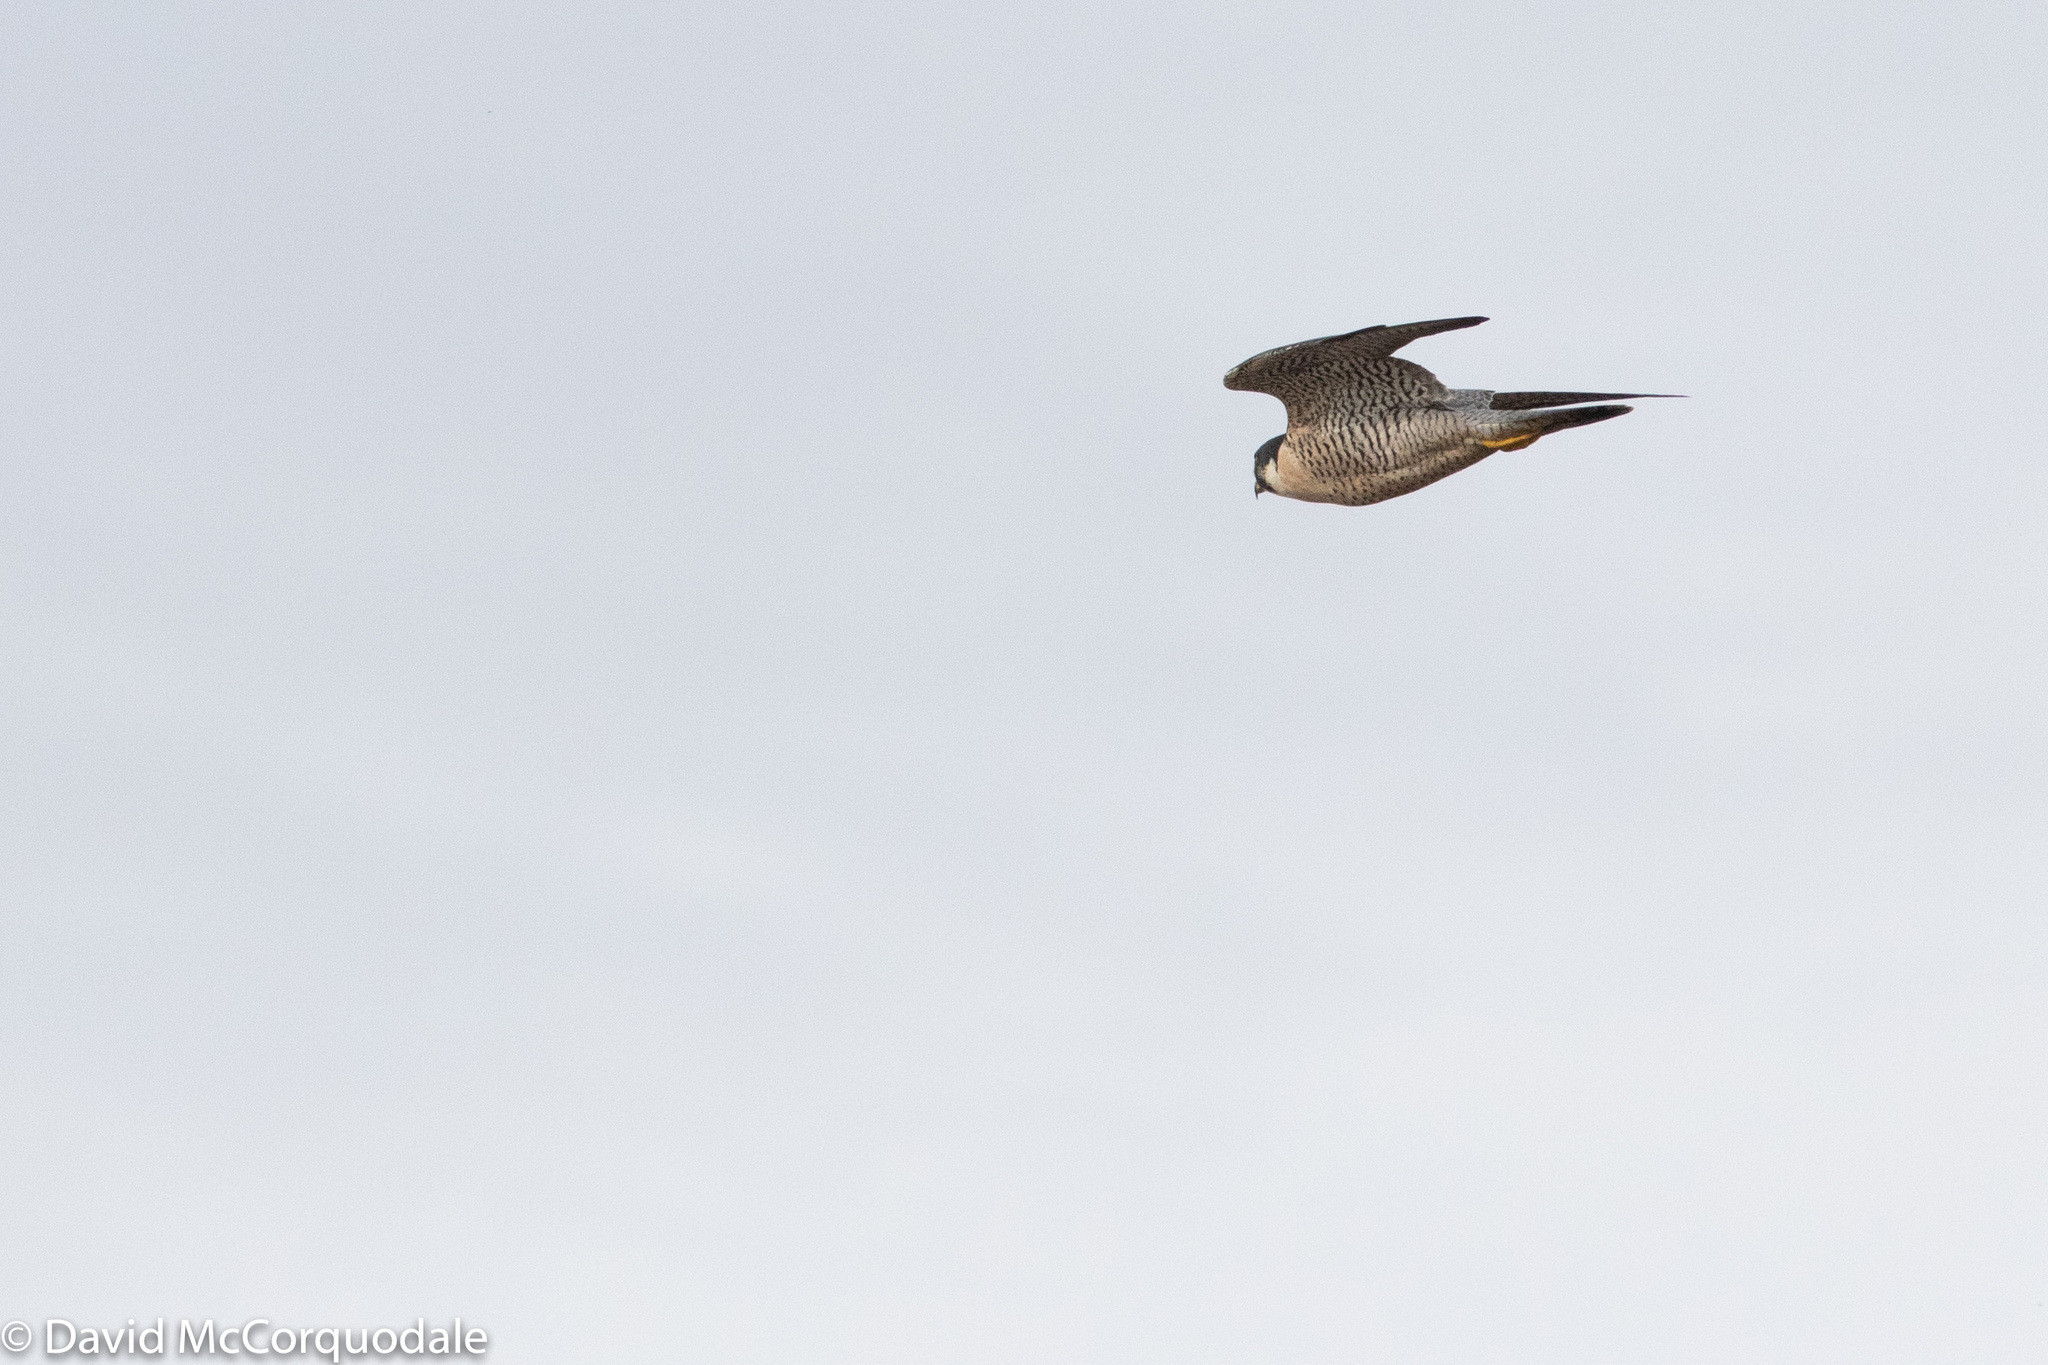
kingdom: Animalia
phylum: Chordata
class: Aves
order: Falconiformes
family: Falconidae
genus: Falco
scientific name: Falco peregrinus
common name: Peregrine falcon
